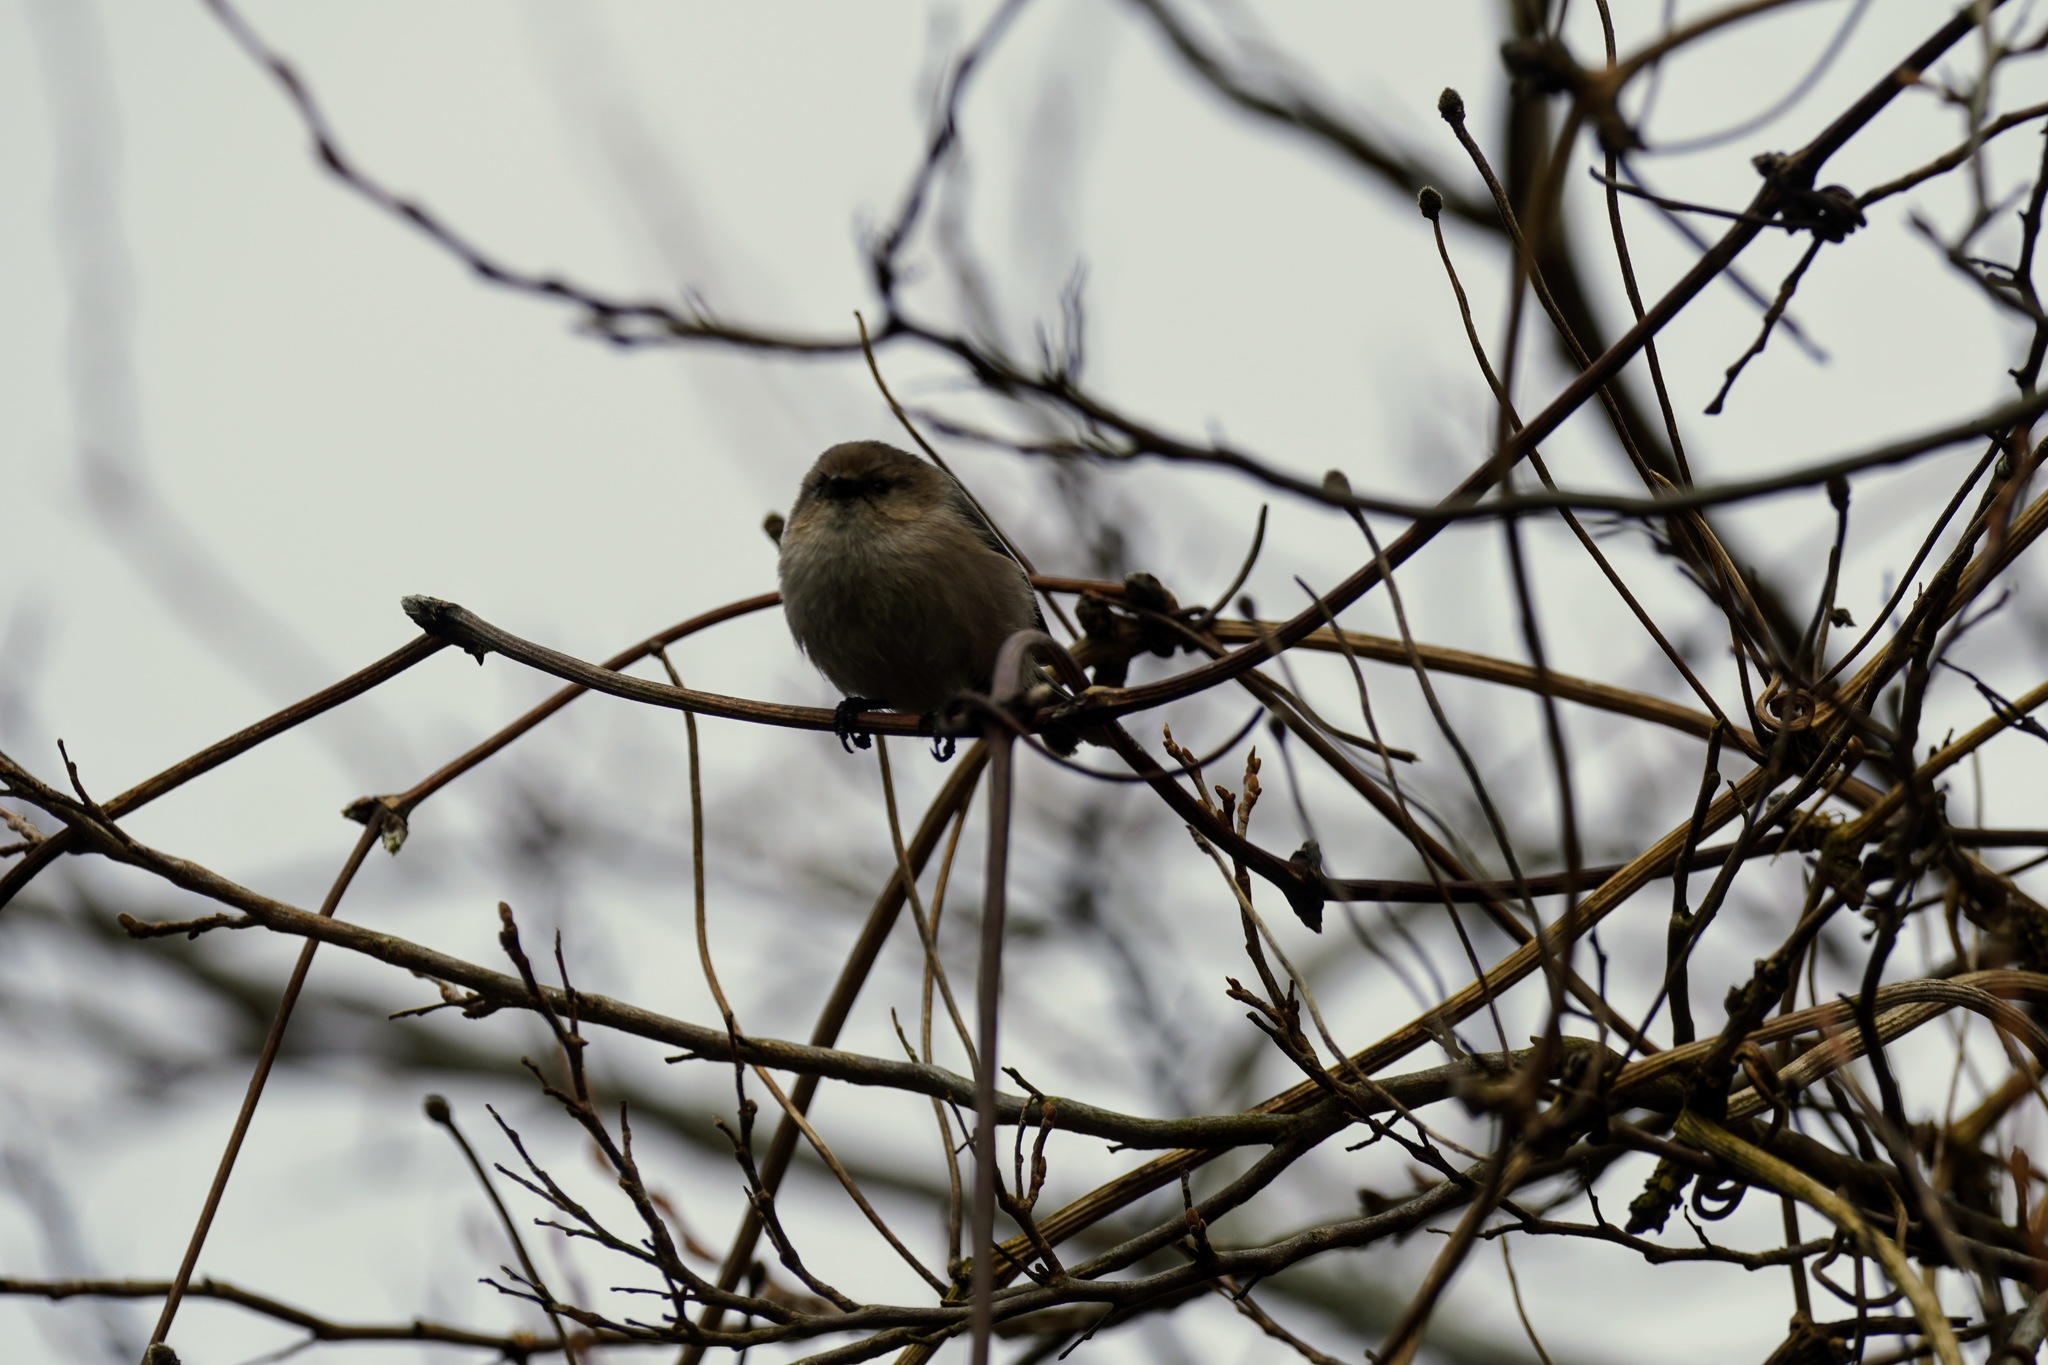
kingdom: Animalia
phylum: Chordata
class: Aves
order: Passeriformes
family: Aegithalidae
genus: Psaltriparus
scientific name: Psaltriparus minimus
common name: American bushtit
